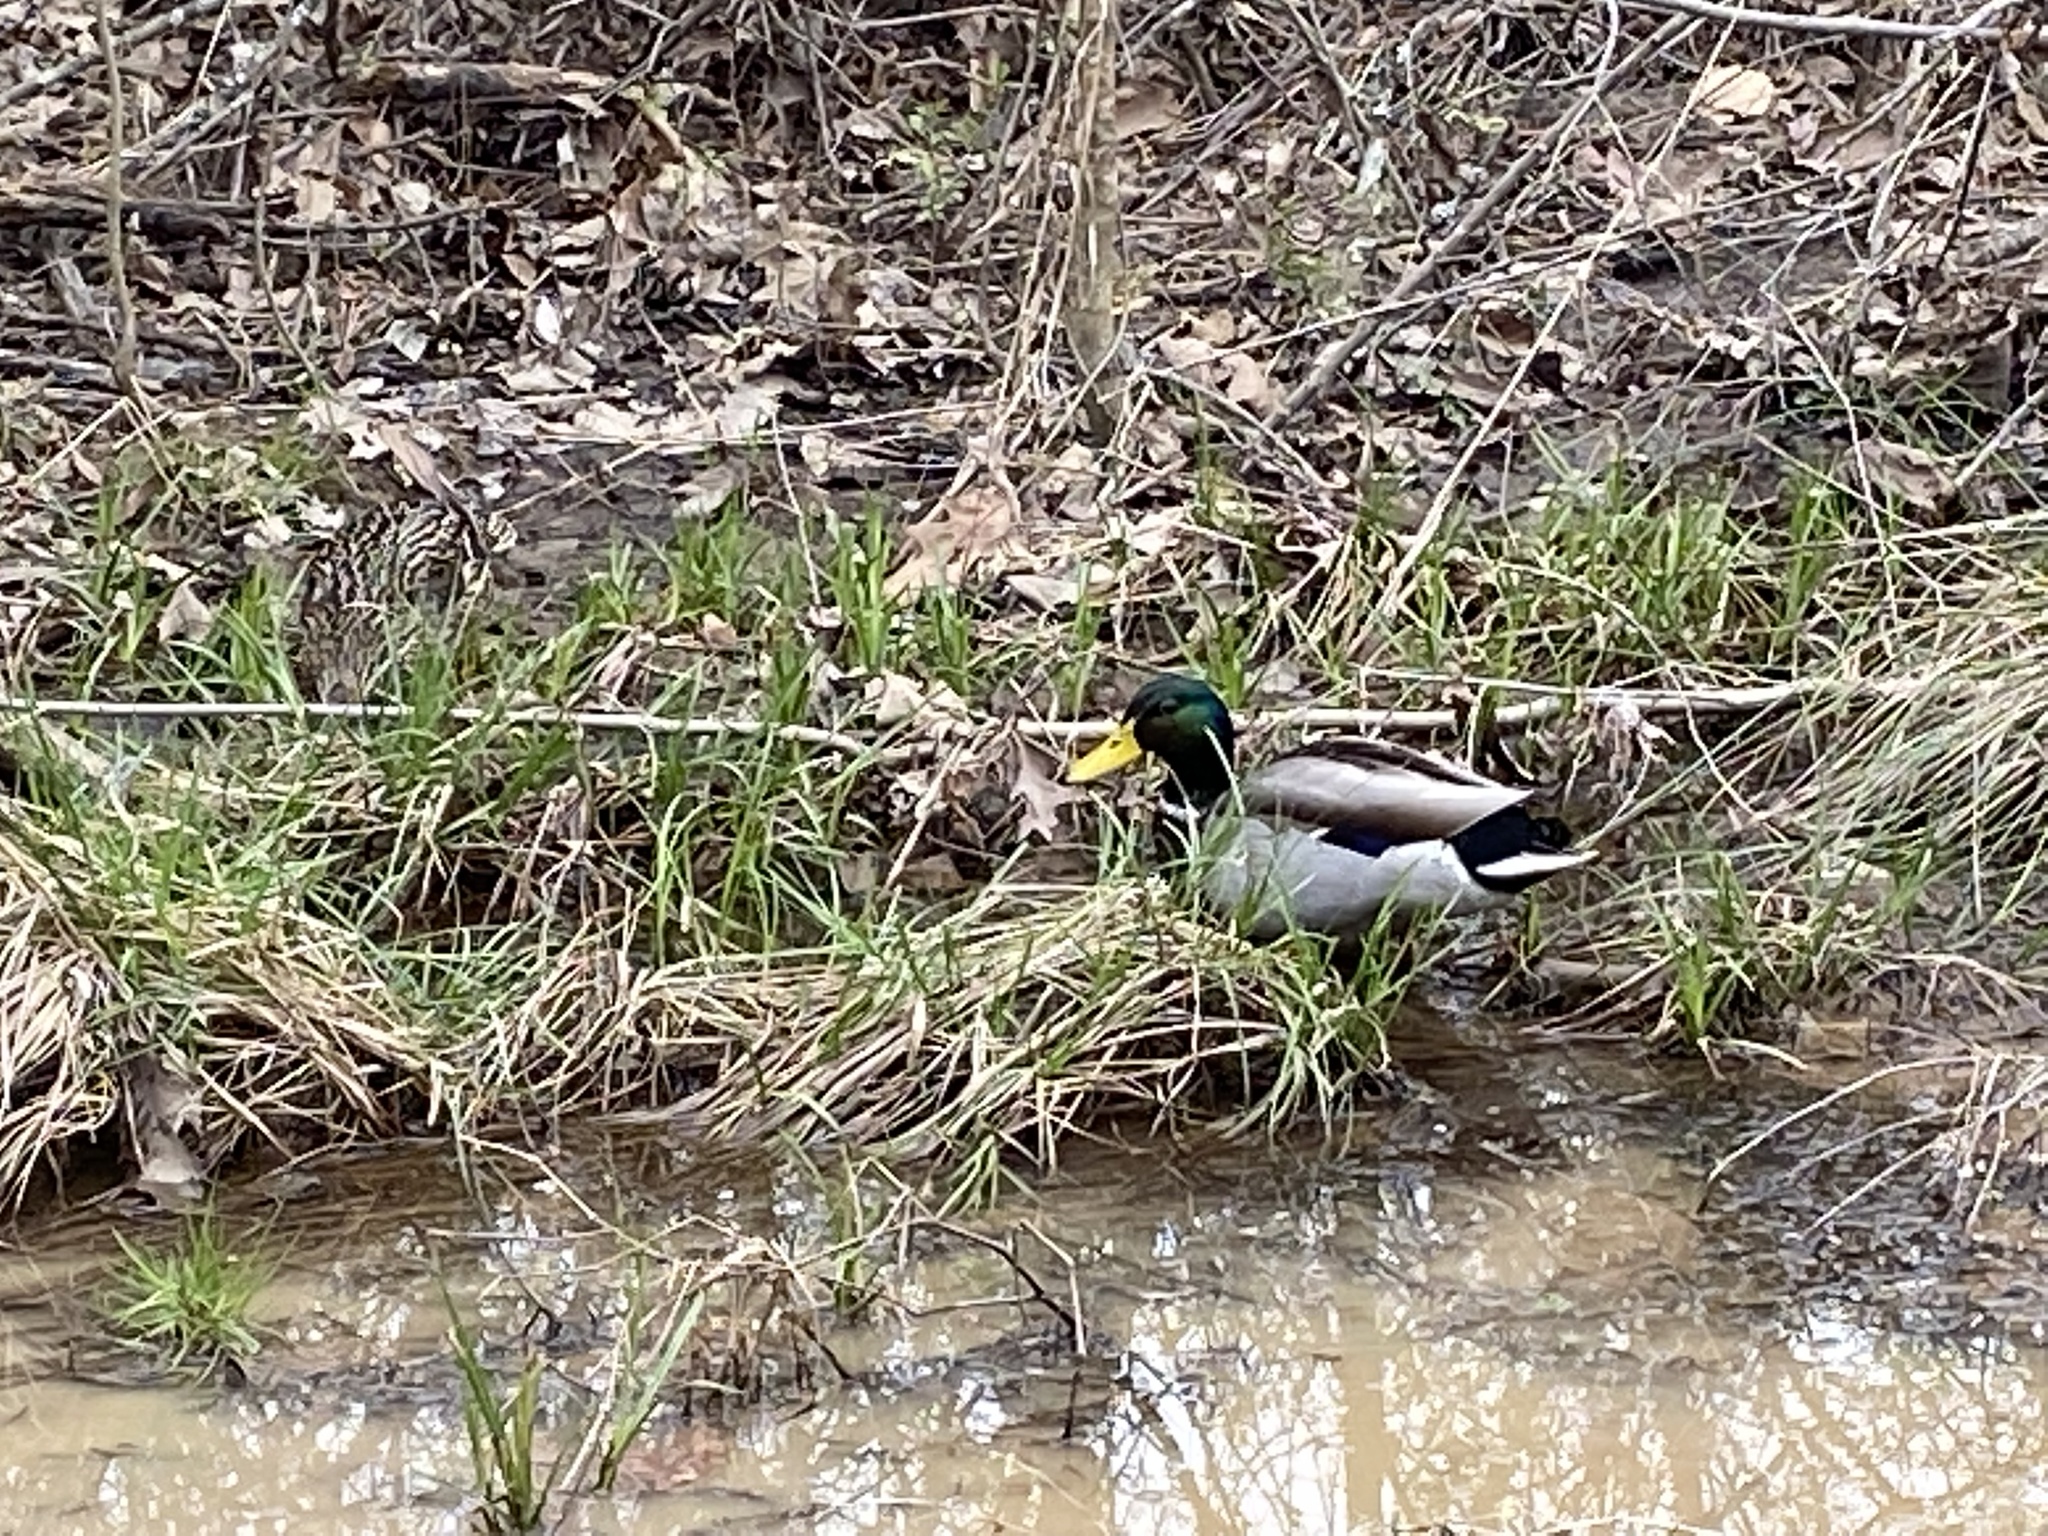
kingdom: Animalia
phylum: Chordata
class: Aves
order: Anseriformes
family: Anatidae
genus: Anas
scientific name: Anas platyrhynchos
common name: Mallard
